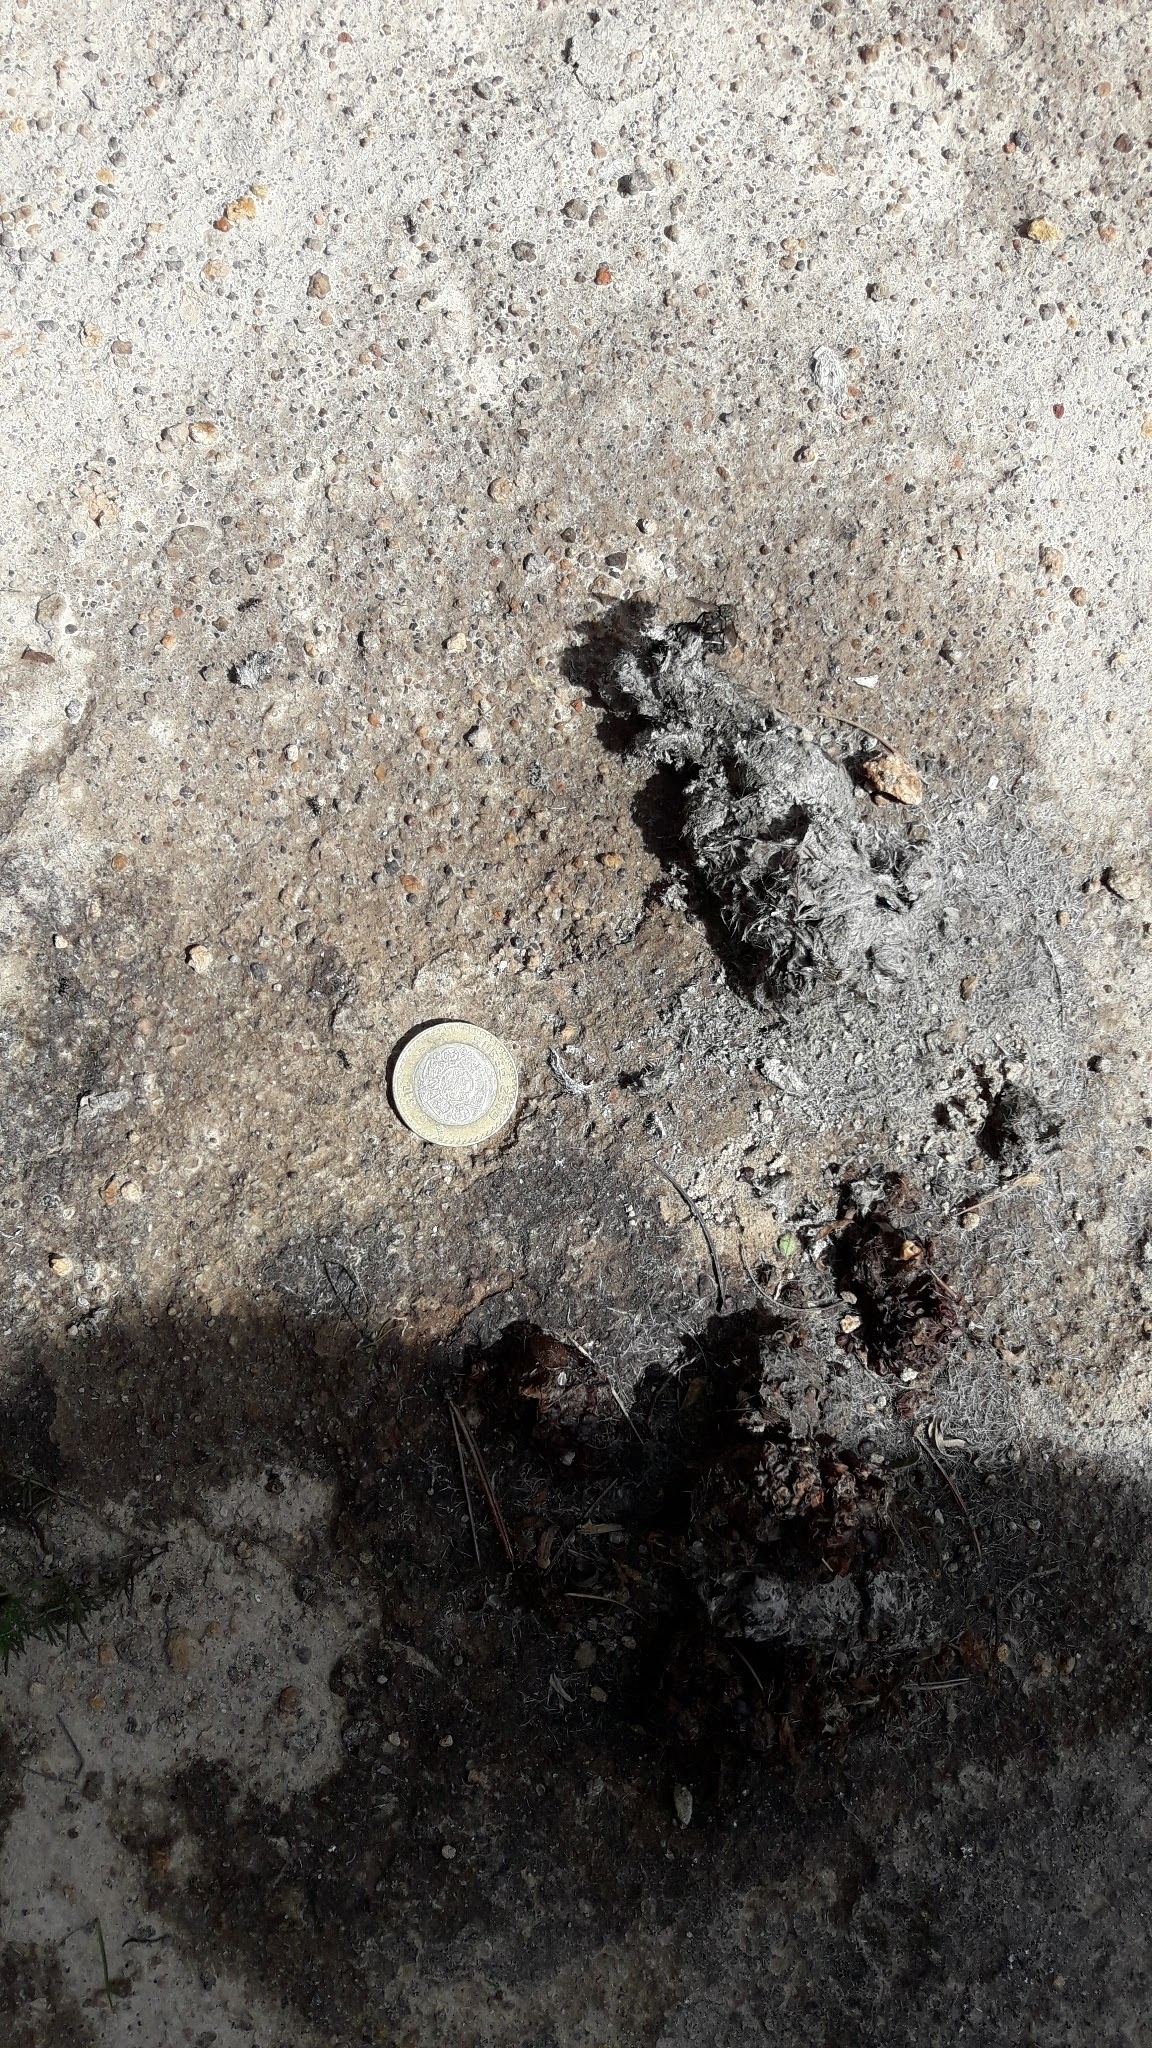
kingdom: Animalia
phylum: Chordata
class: Mammalia
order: Carnivora
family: Canidae
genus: Canis
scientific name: Canis latrans
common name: Coyote
